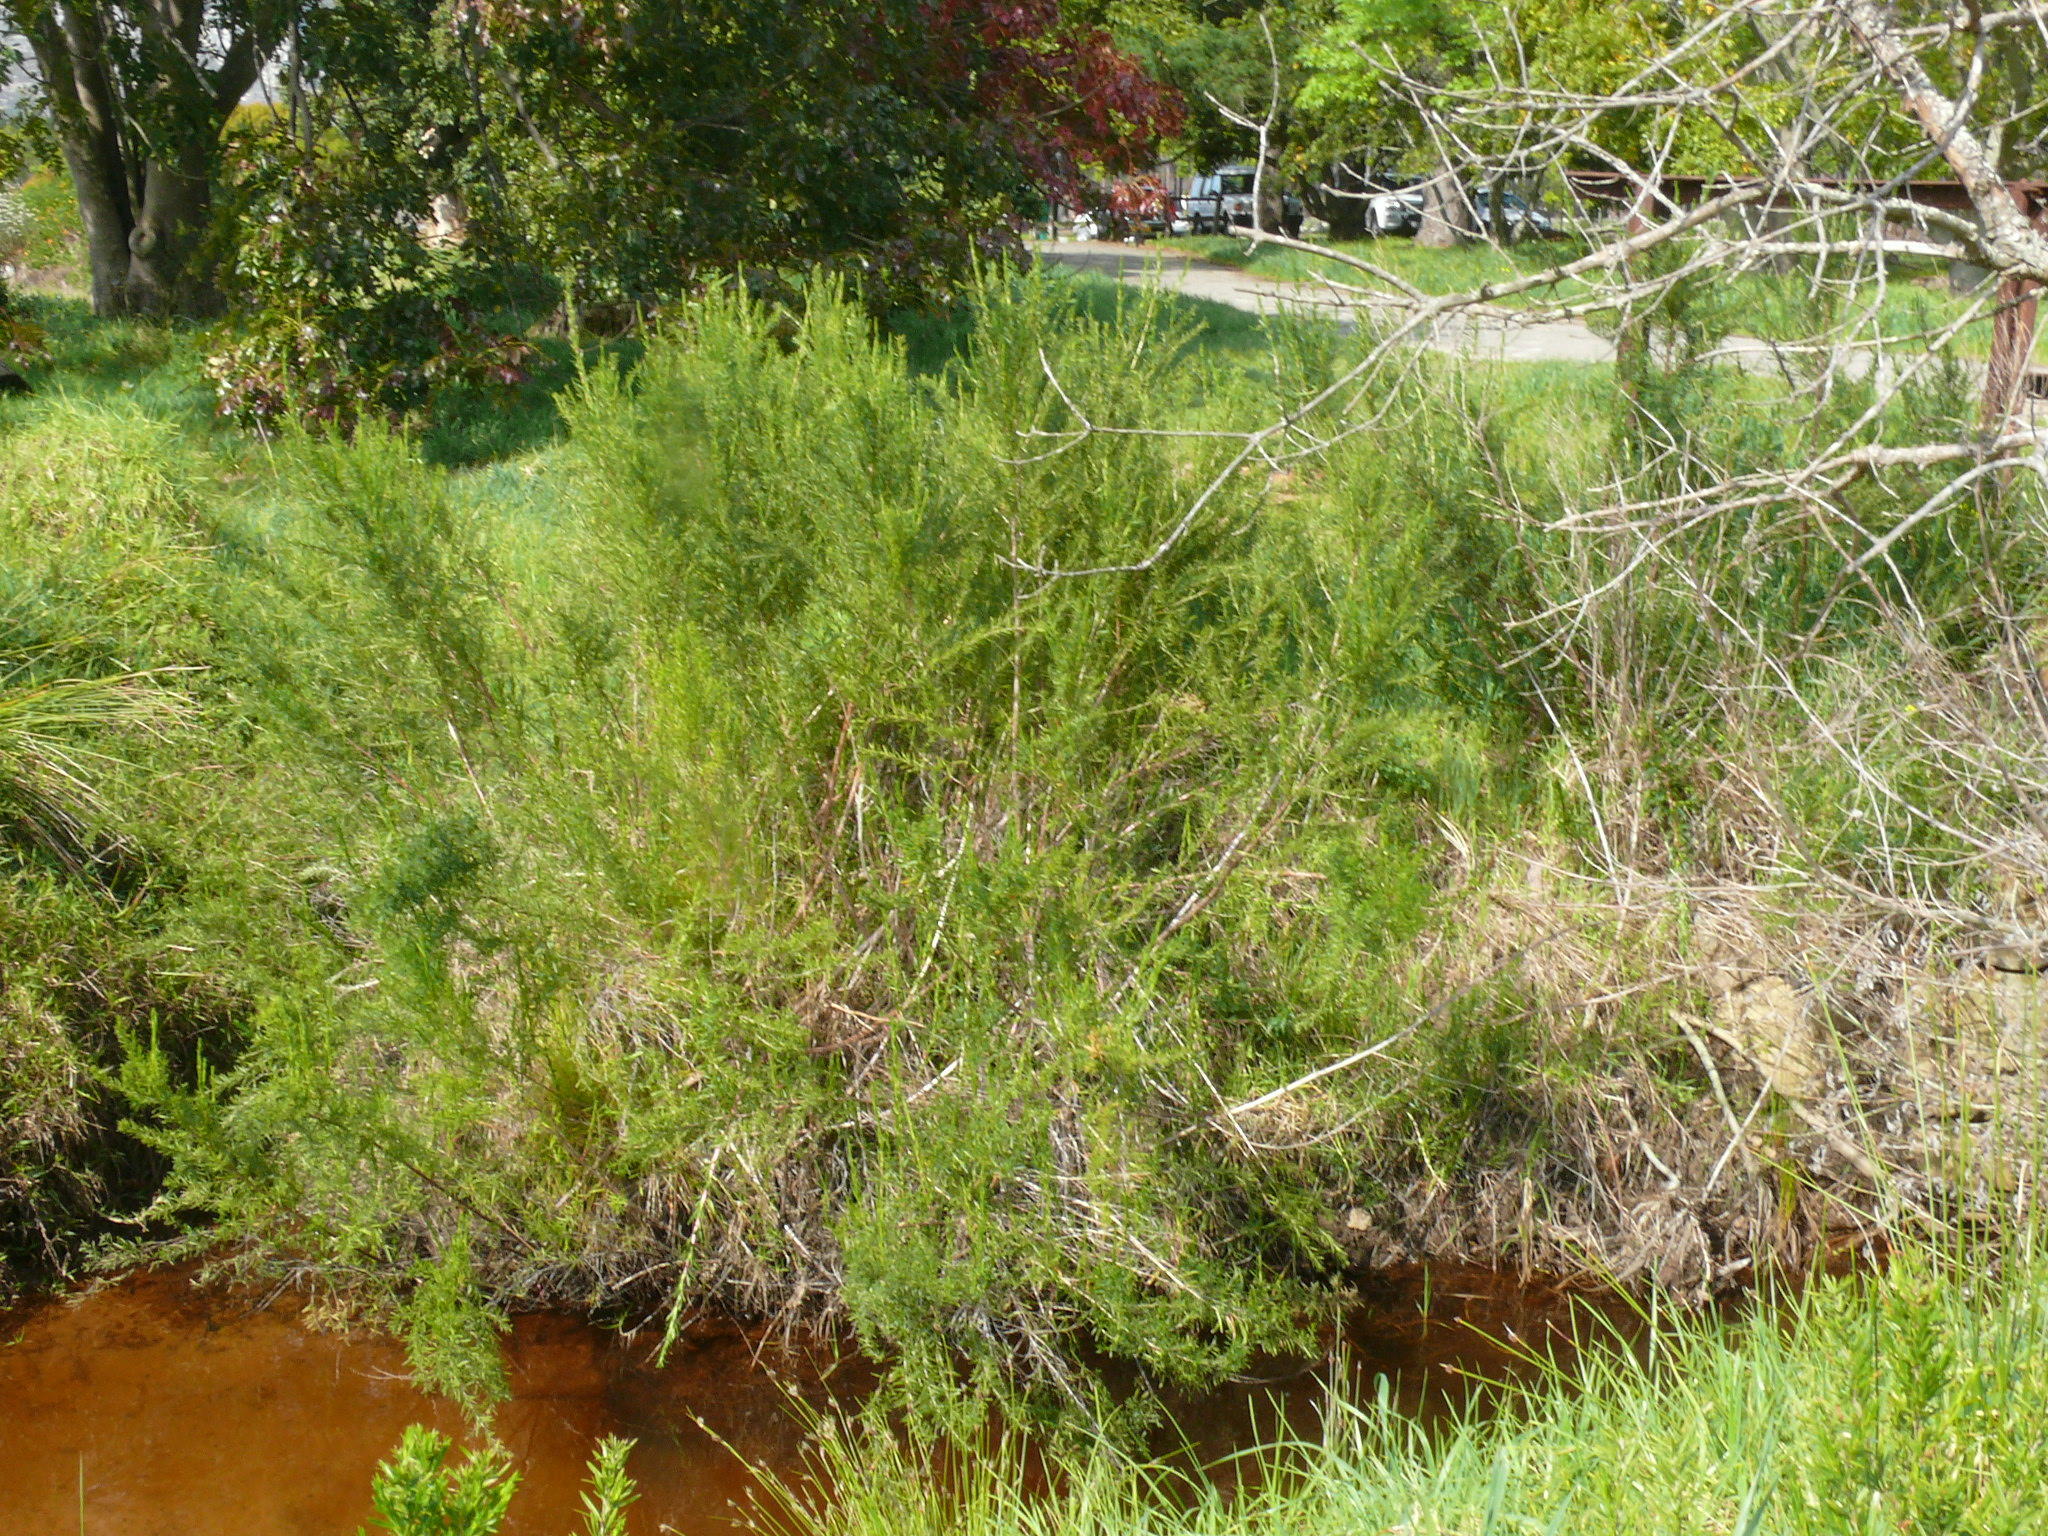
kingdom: Plantae
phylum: Tracheophyta
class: Magnoliopsida
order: Rosales
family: Rosaceae
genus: Cliffortia
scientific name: Cliffortia strobilifera
